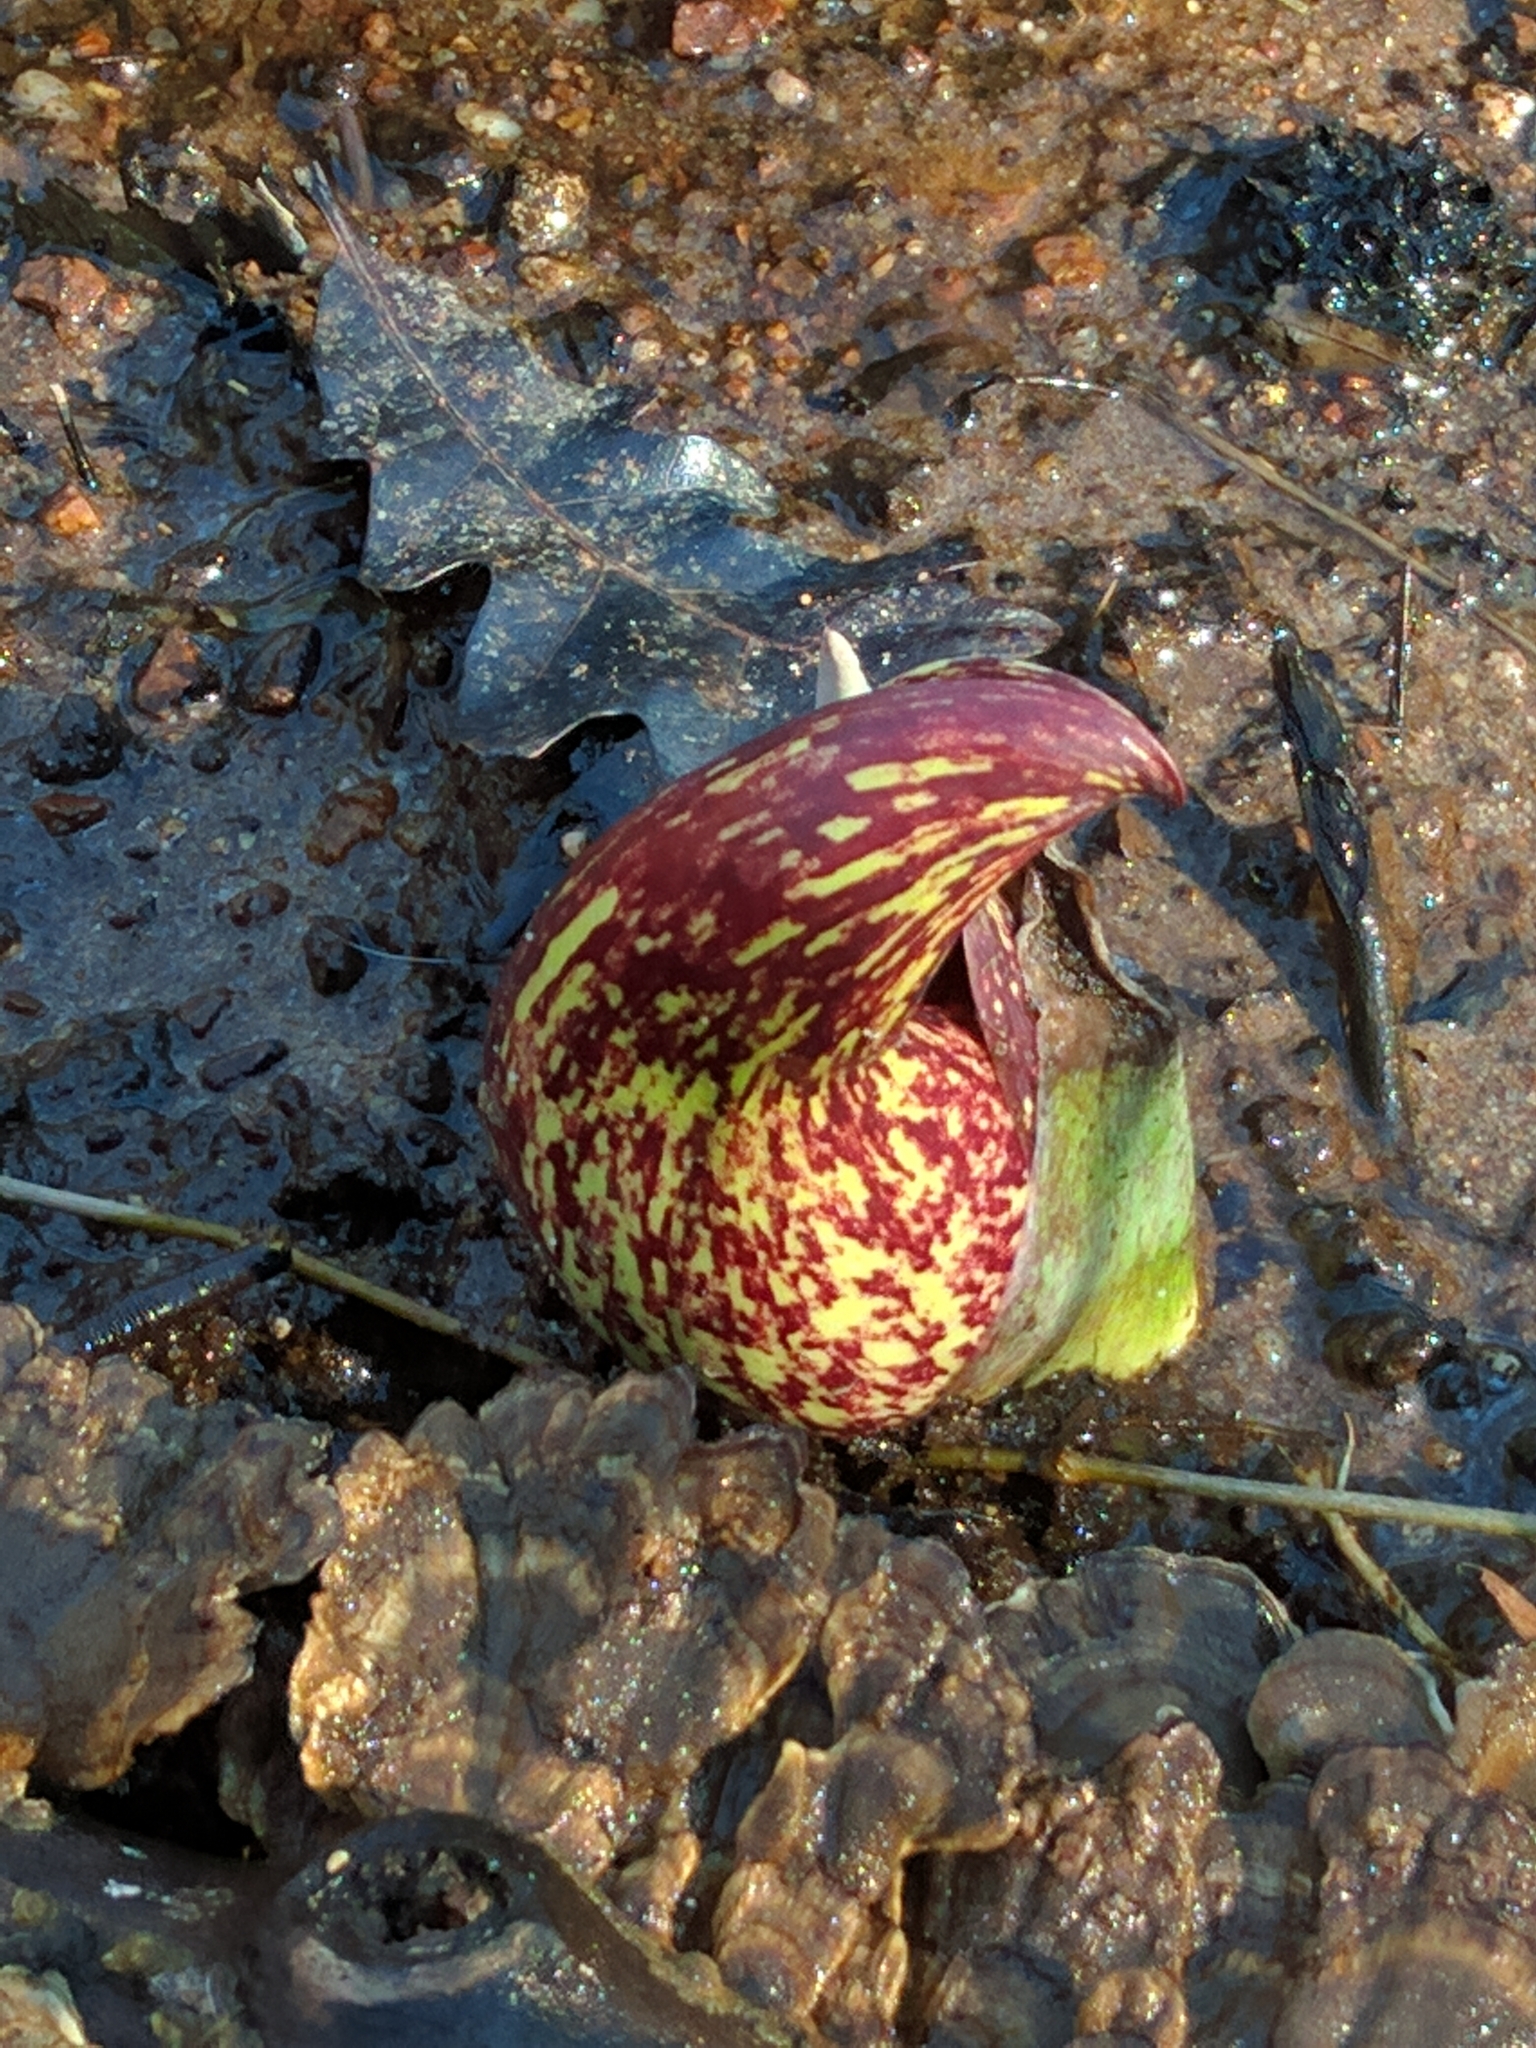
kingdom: Plantae
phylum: Tracheophyta
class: Liliopsida
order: Alismatales
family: Araceae
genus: Symplocarpus
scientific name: Symplocarpus foetidus
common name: Eastern skunk cabbage
